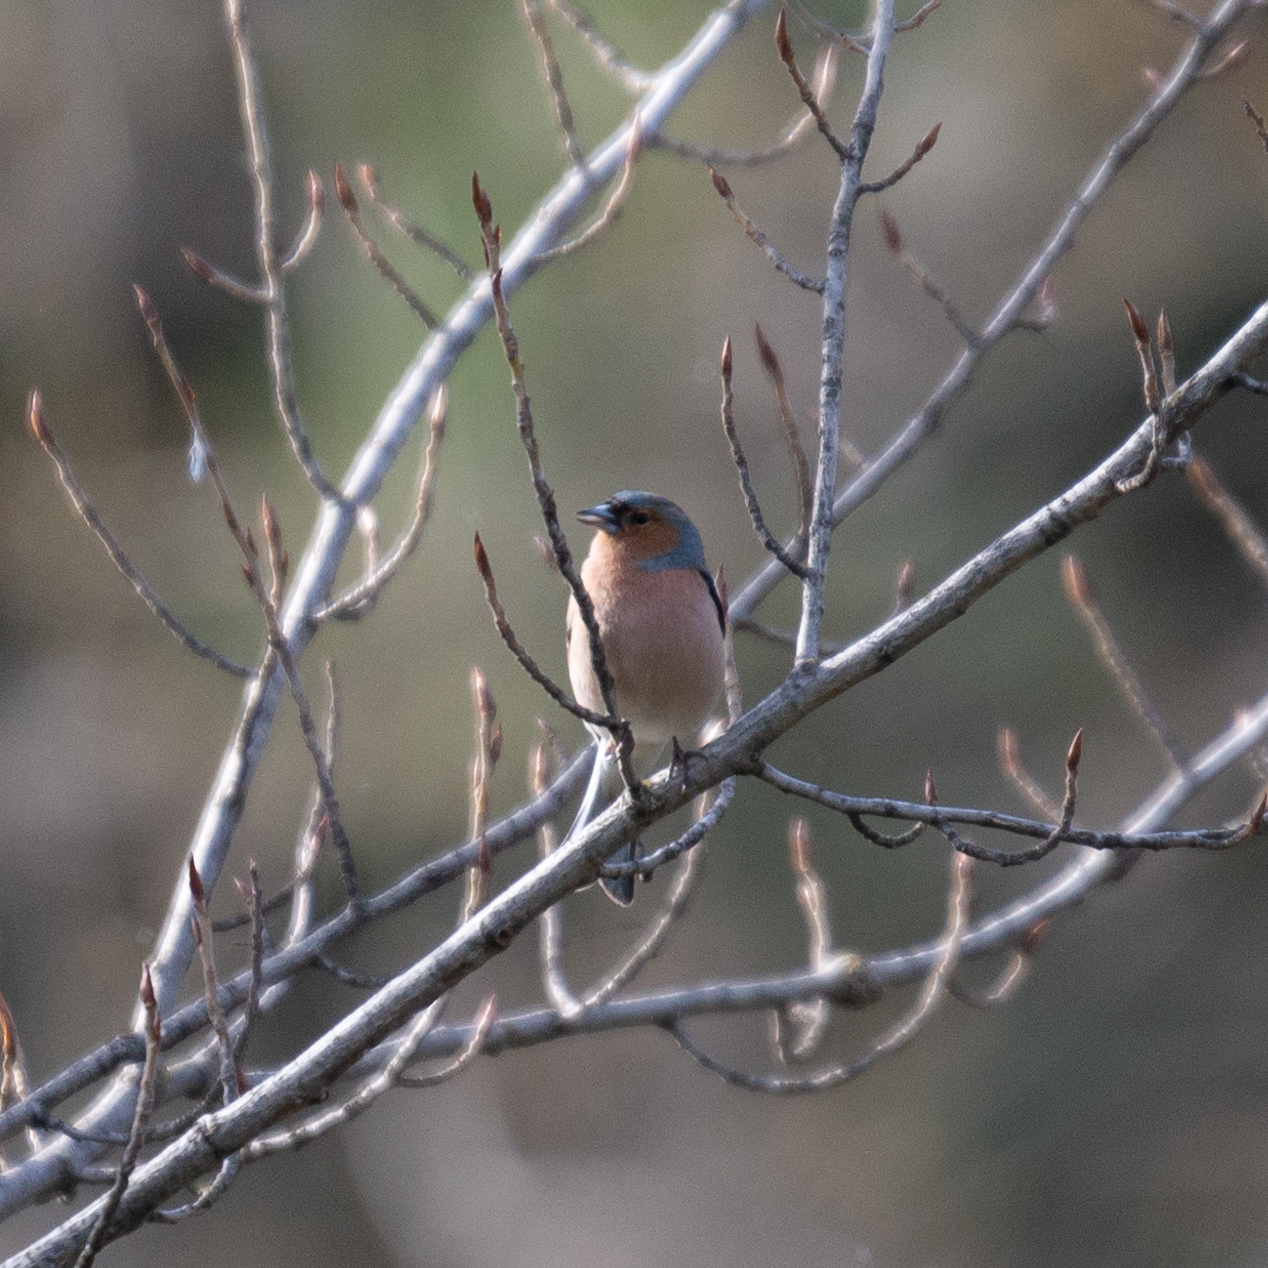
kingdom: Animalia
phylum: Chordata
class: Aves
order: Passeriformes
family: Fringillidae
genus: Fringilla
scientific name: Fringilla coelebs
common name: Common chaffinch
